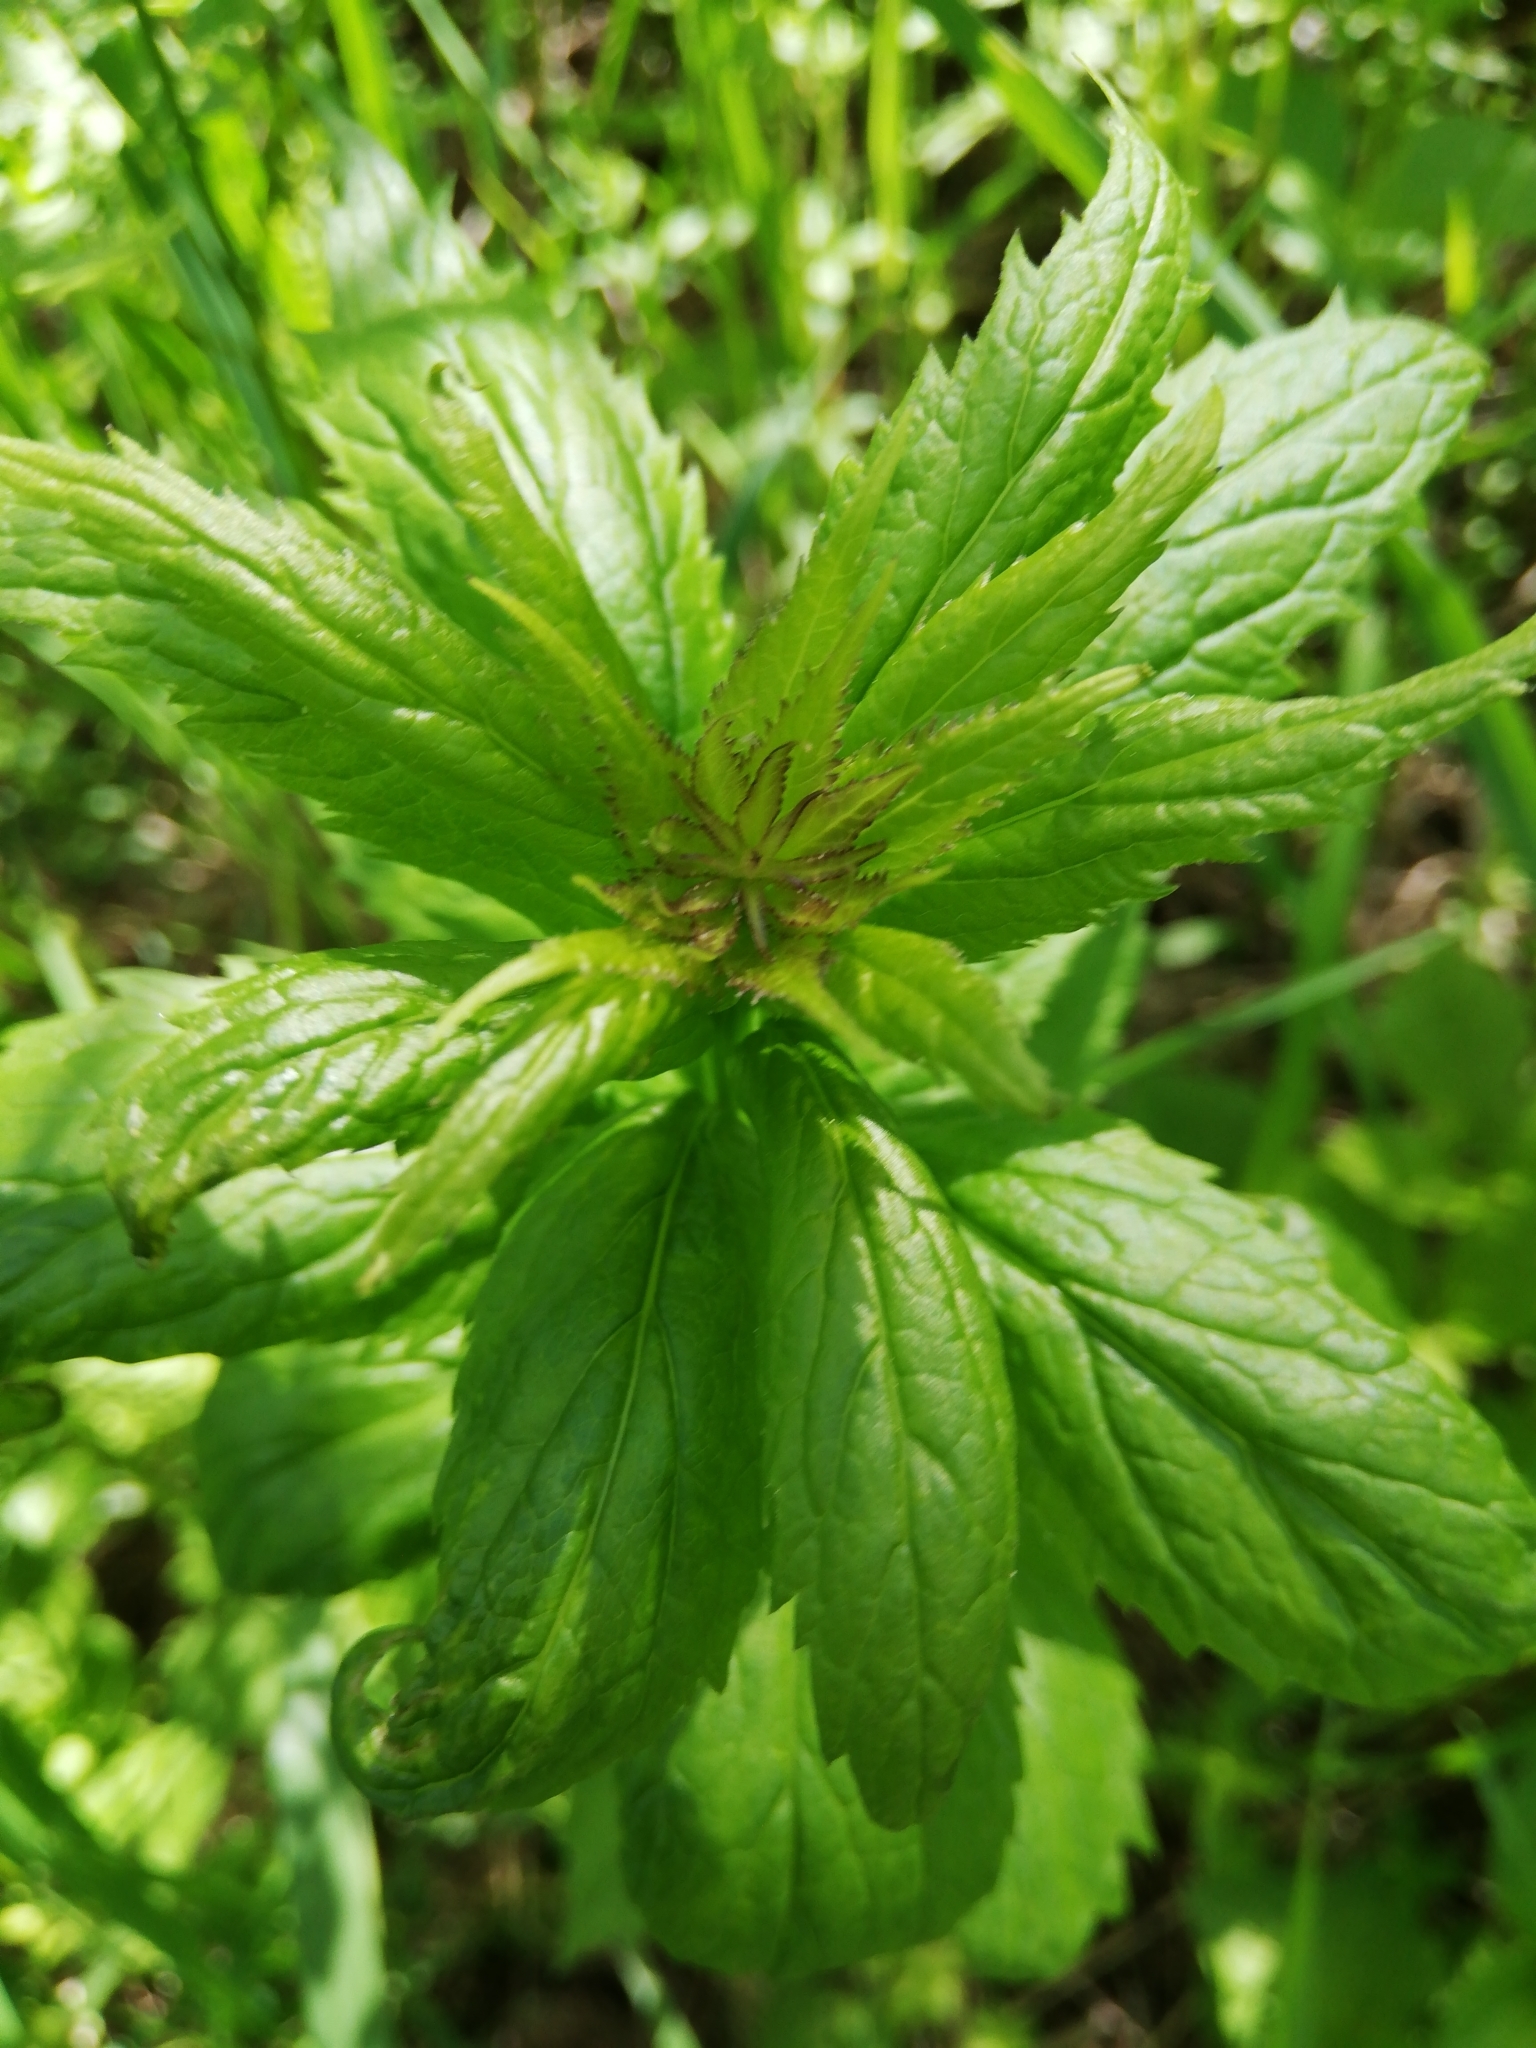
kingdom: Plantae
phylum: Tracheophyta
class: Magnoliopsida
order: Asterales
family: Campanulaceae
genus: Adenophora
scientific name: Adenophora liliifolia
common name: Lilyleaf ladybells
